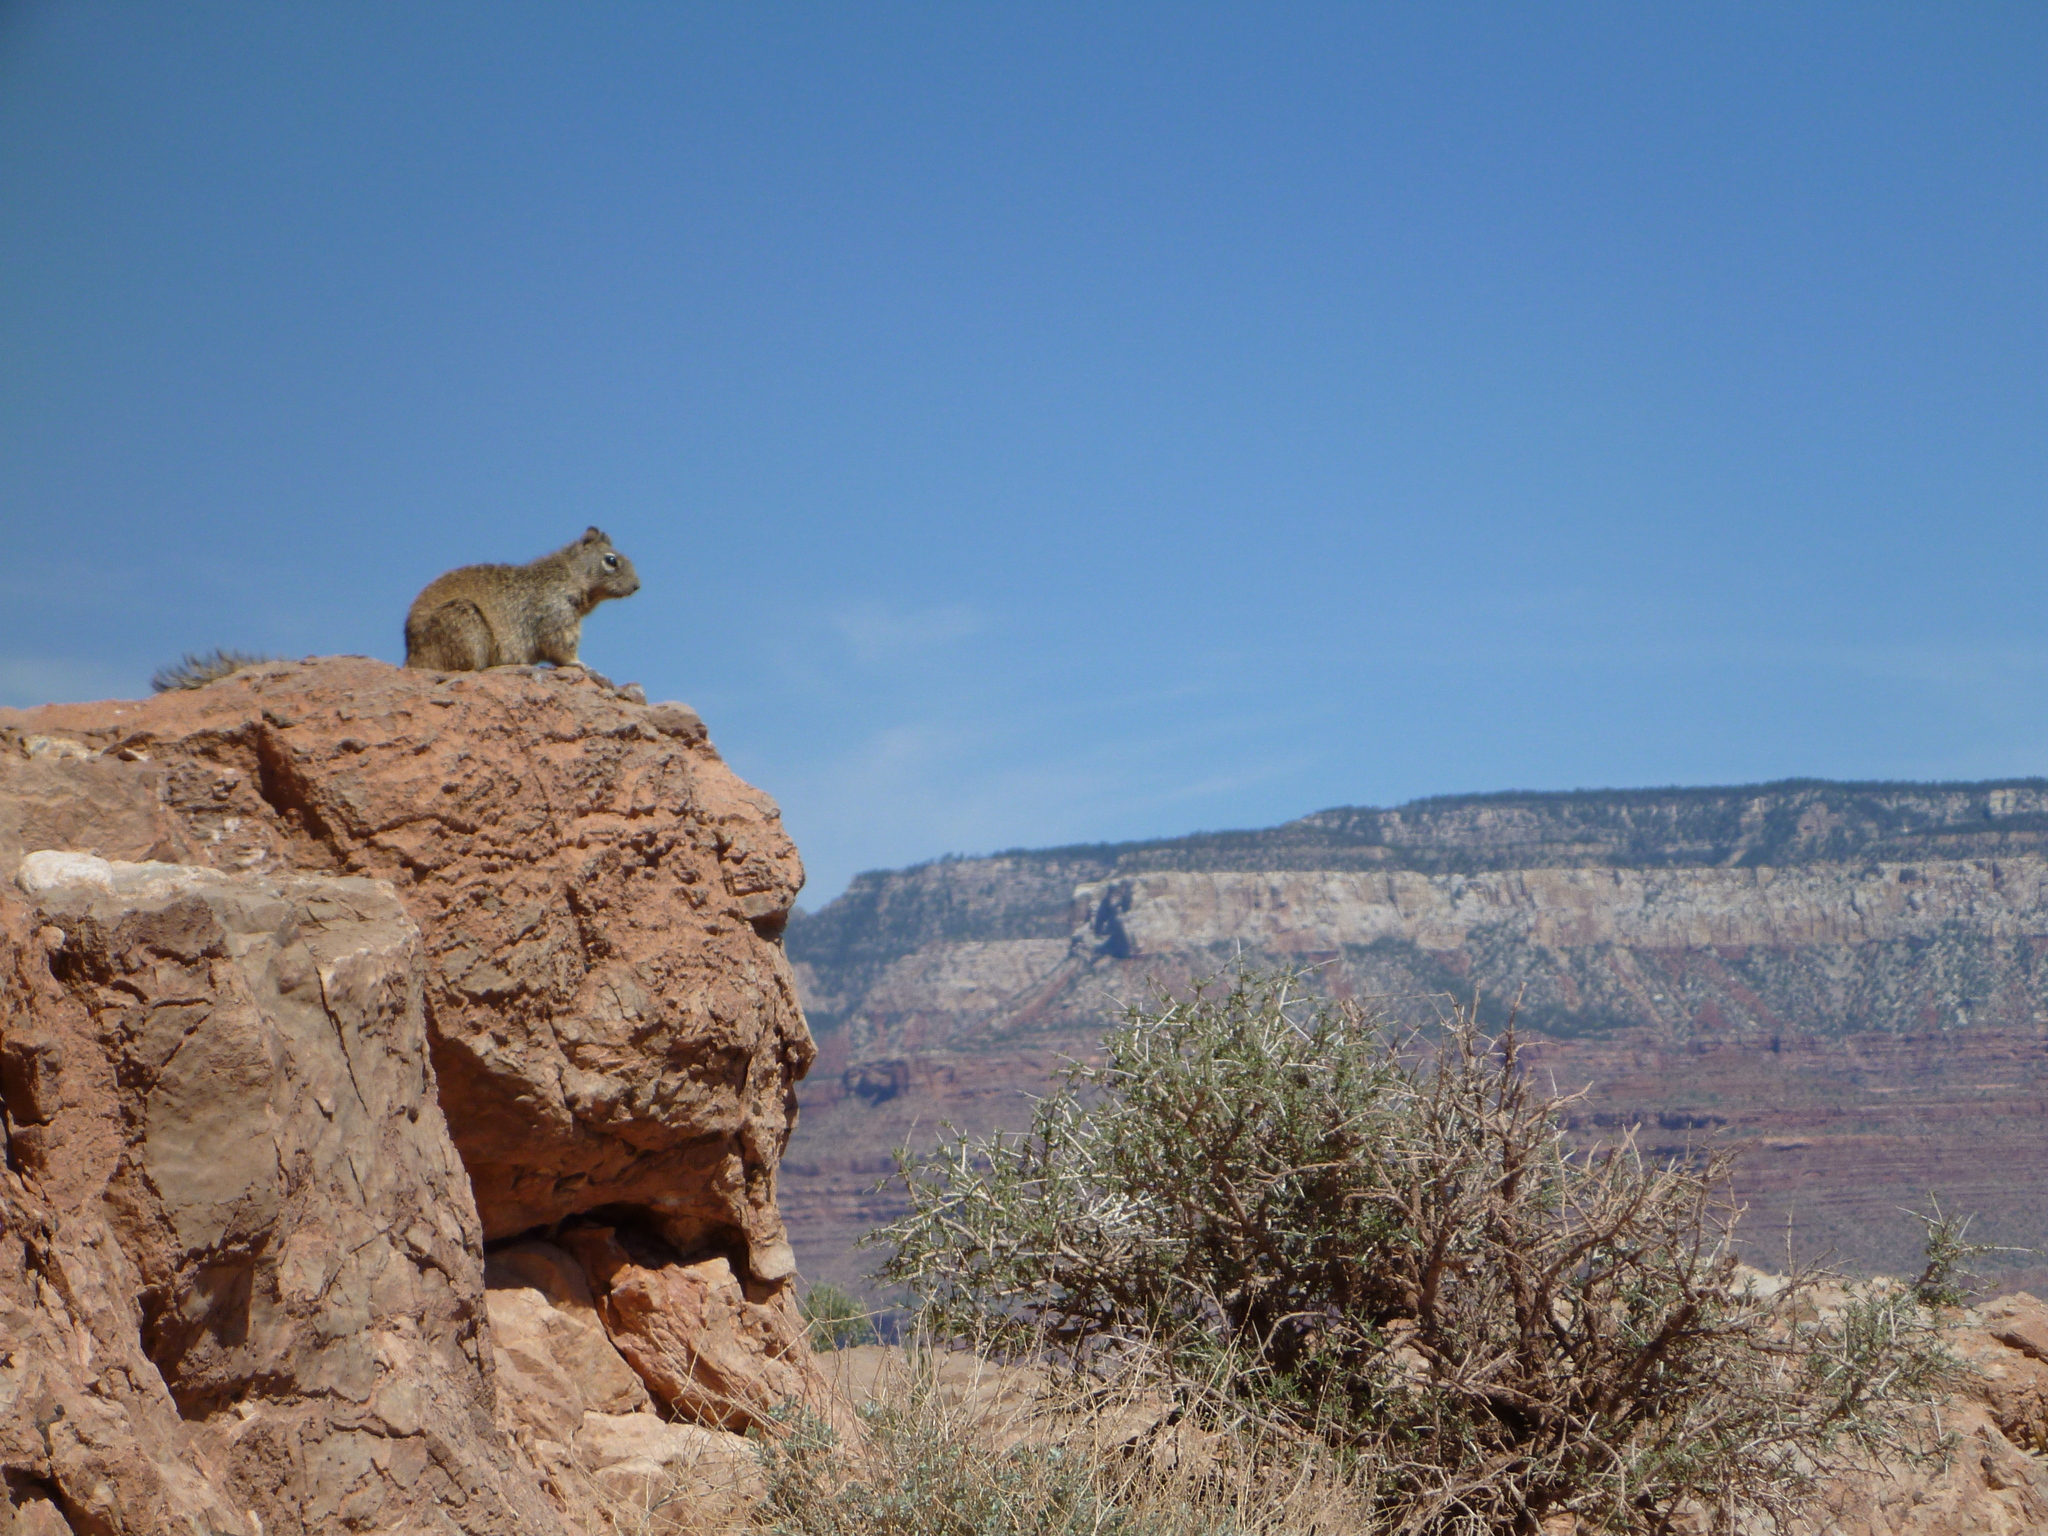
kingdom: Animalia
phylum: Chordata
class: Mammalia
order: Rodentia
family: Sciuridae
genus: Otospermophilus
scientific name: Otospermophilus variegatus
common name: Rock squirrel
